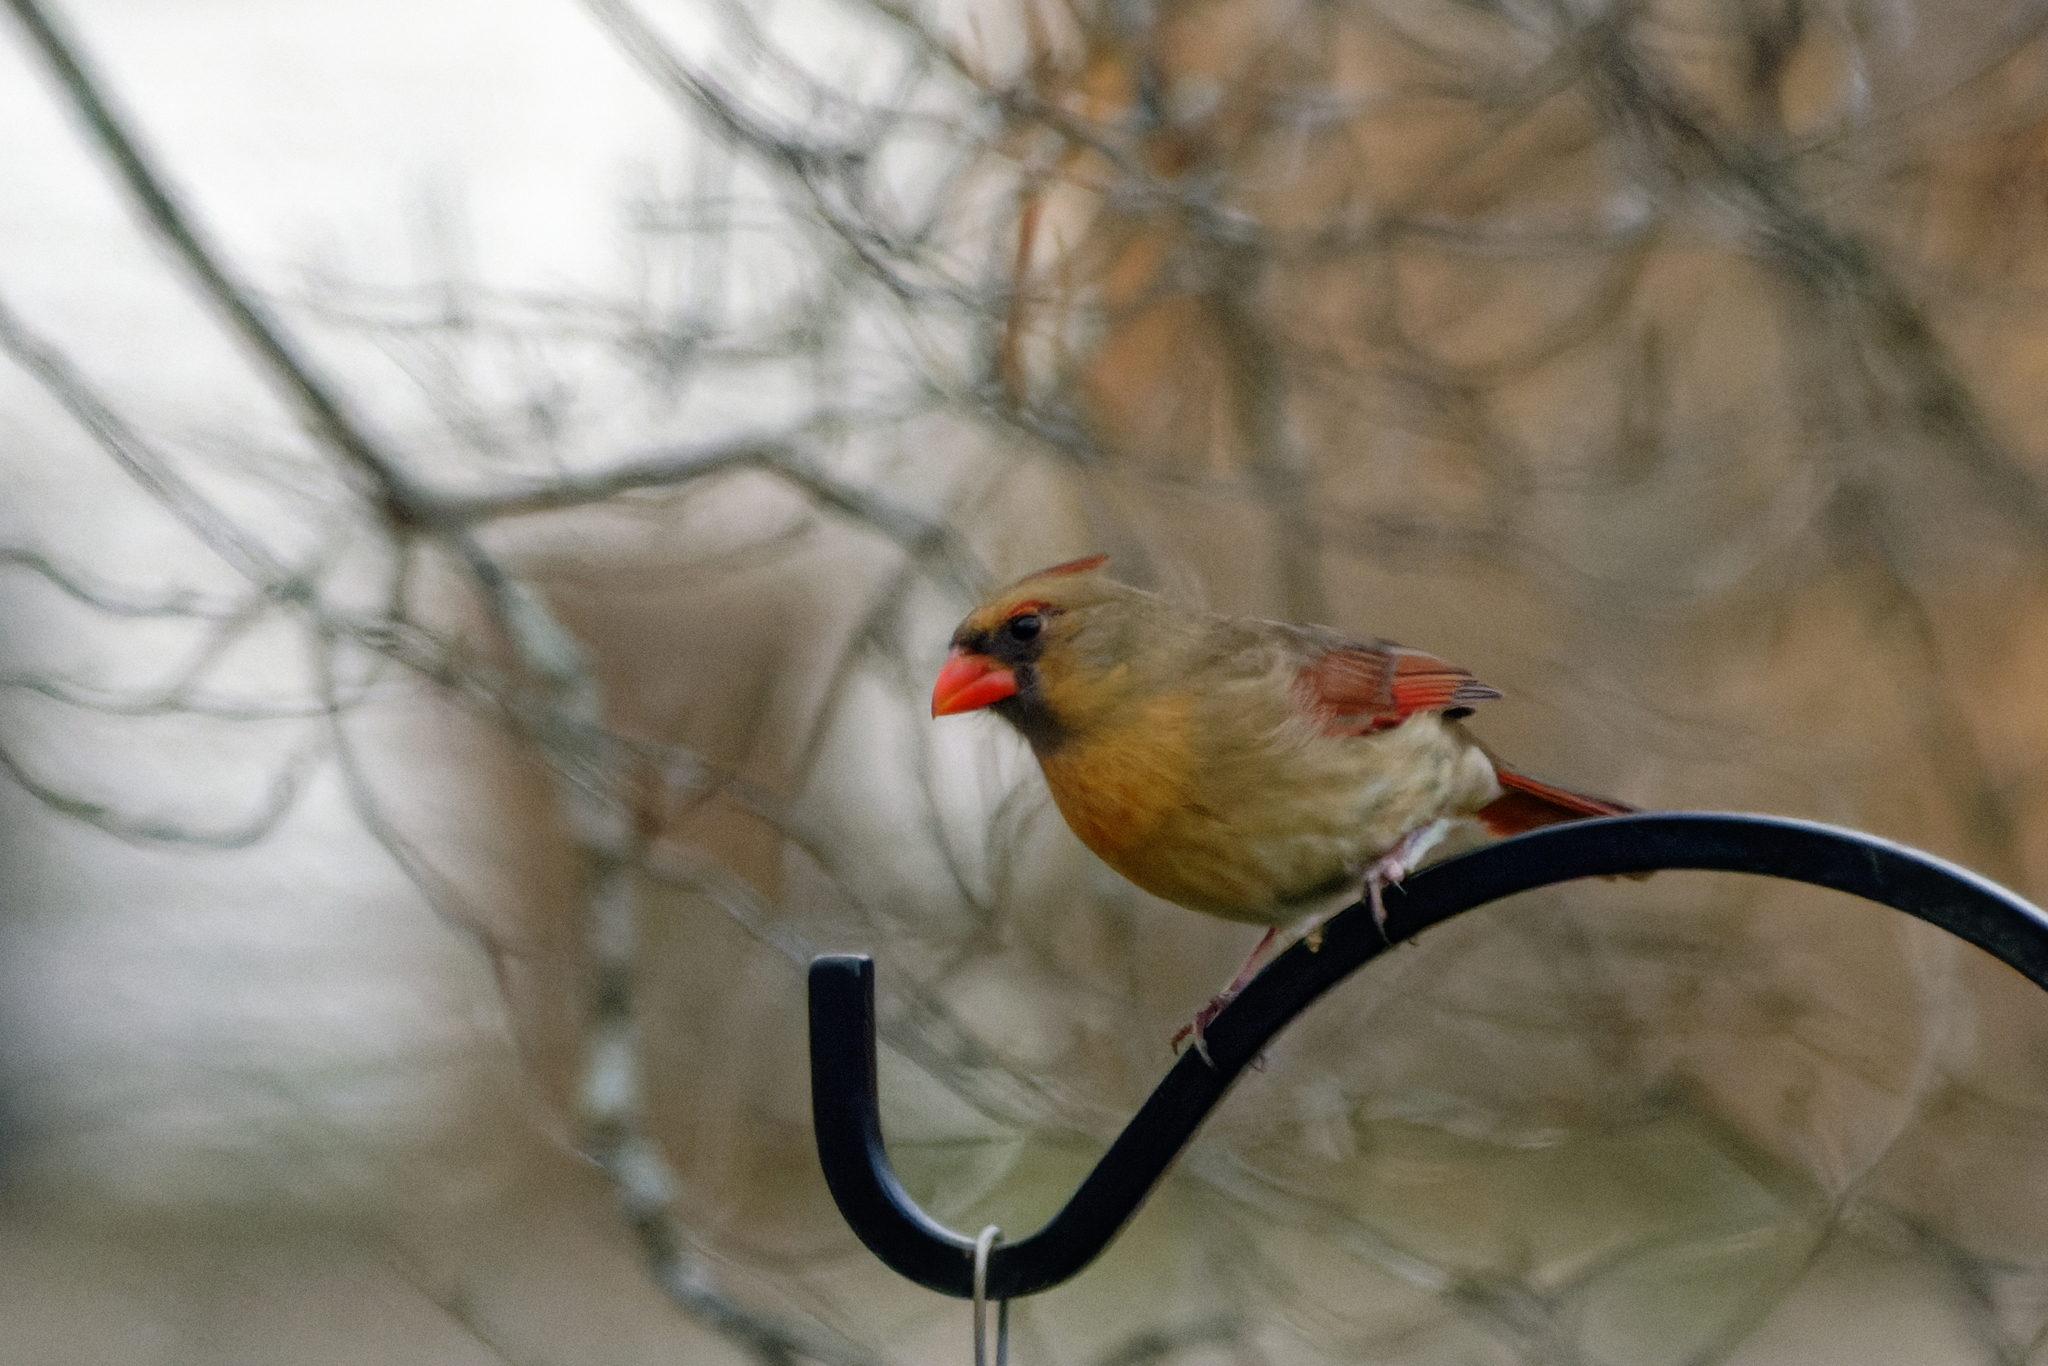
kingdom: Animalia
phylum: Chordata
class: Aves
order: Passeriformes
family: Cardinalidae
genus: Cardinalis
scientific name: Cardinalis cardinalis
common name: Northern cardinal
